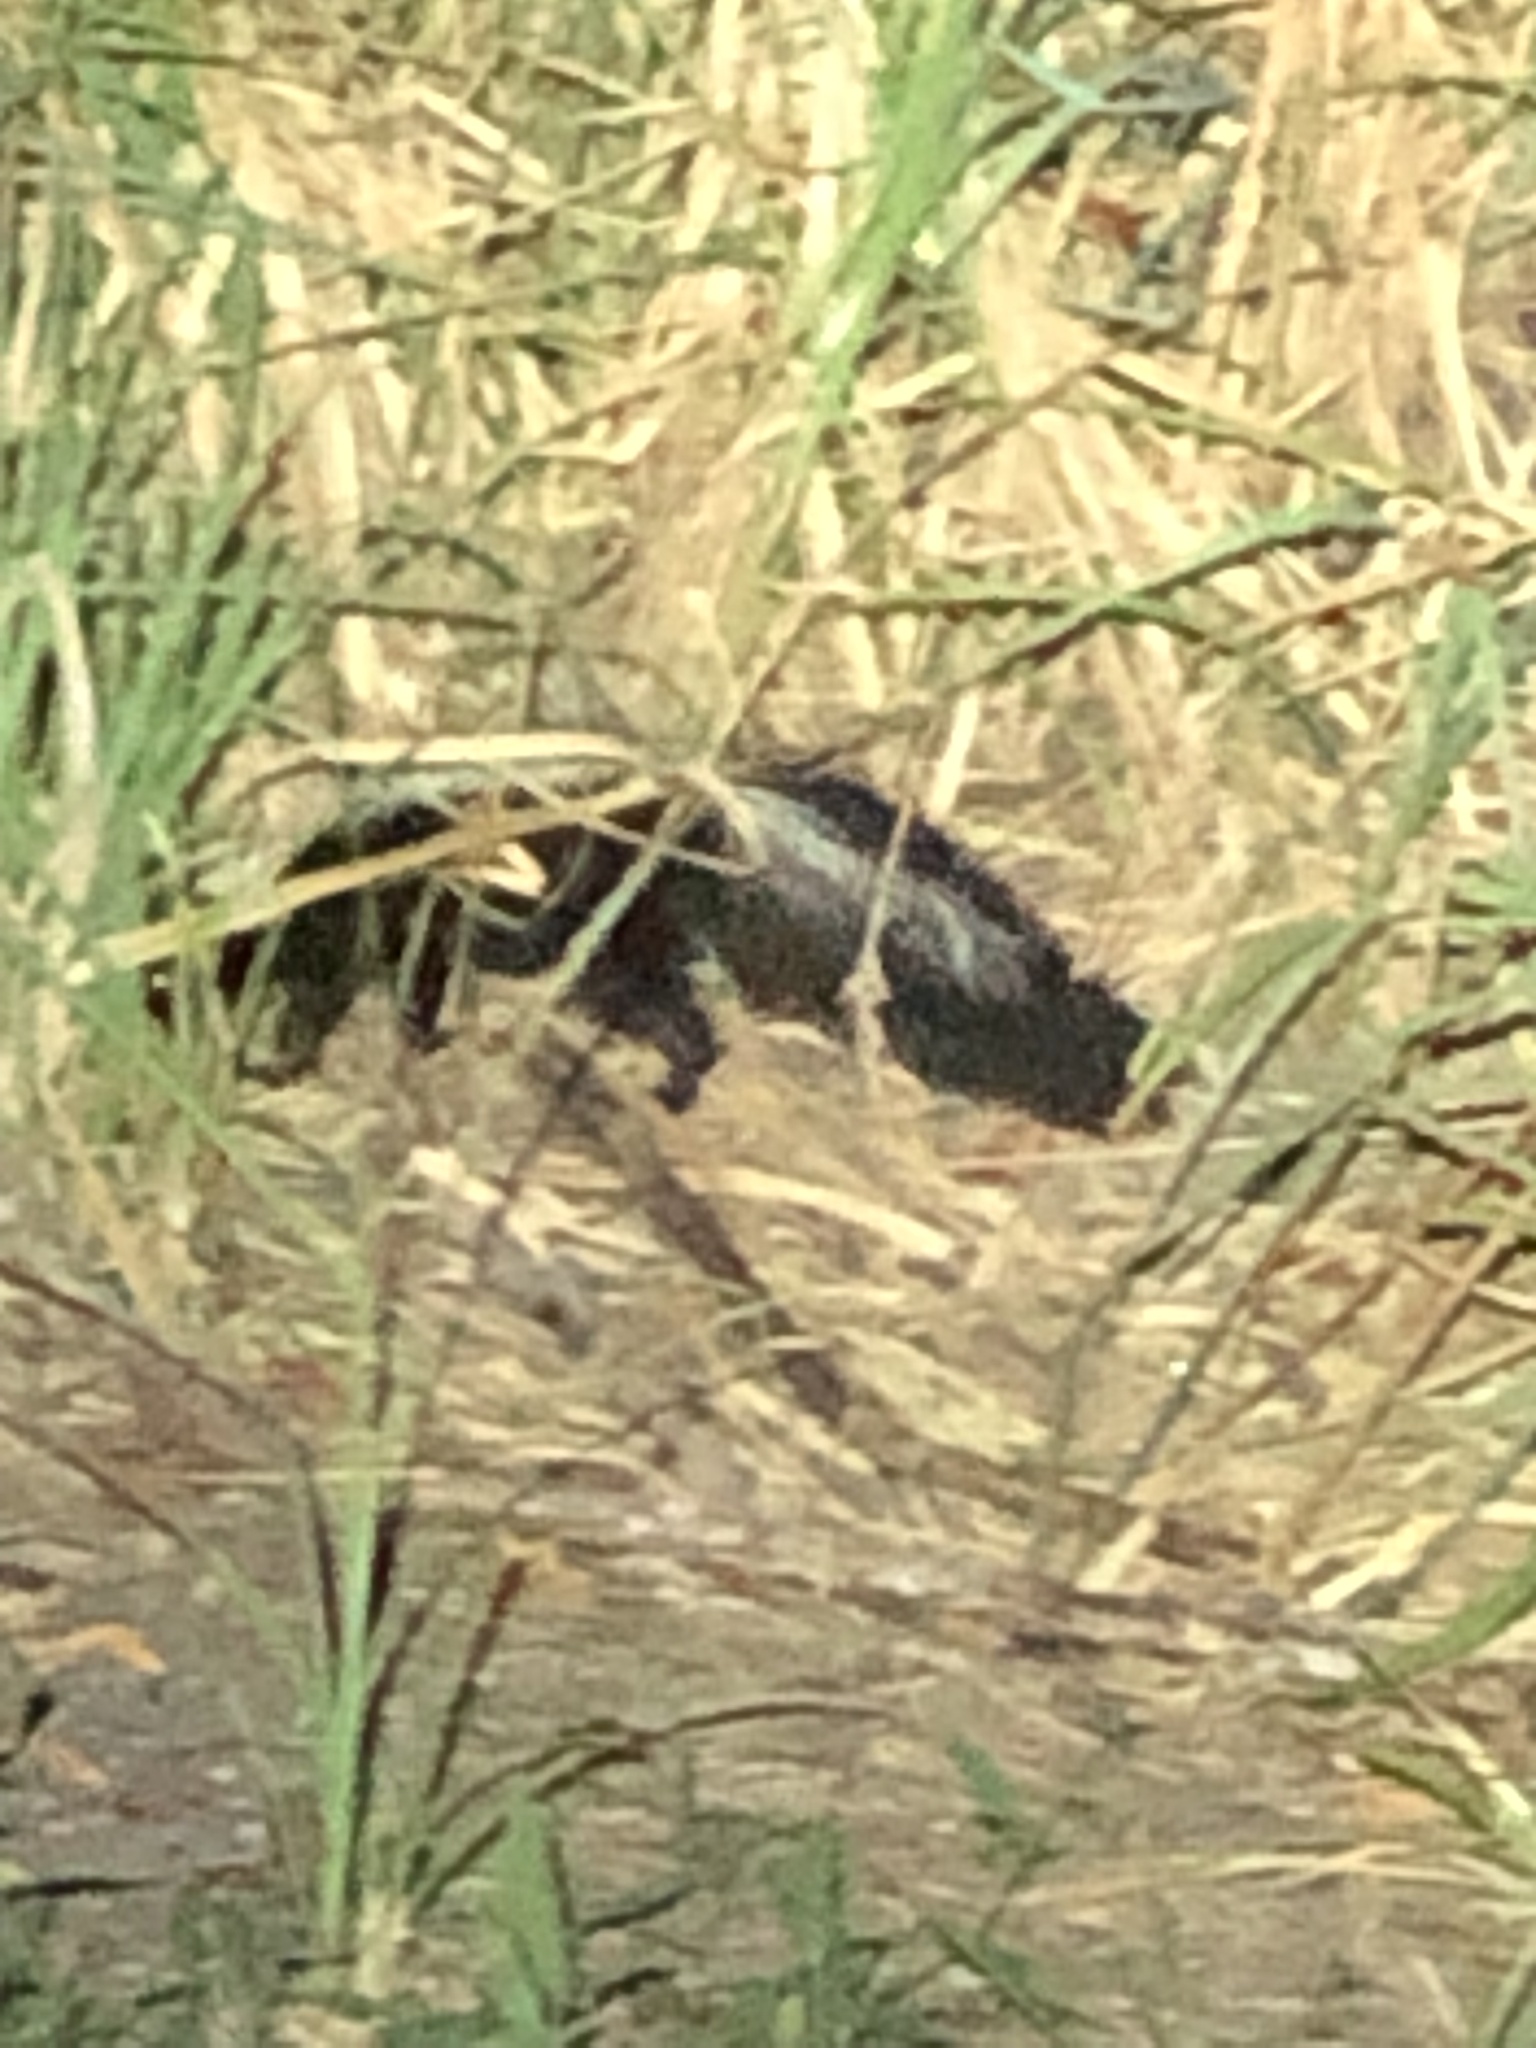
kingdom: Animalia
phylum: Chordata
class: Mammalia
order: Carnivora
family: Mephitidae
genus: Mephitis
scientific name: Mephitis mephitis
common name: Striped skunk
